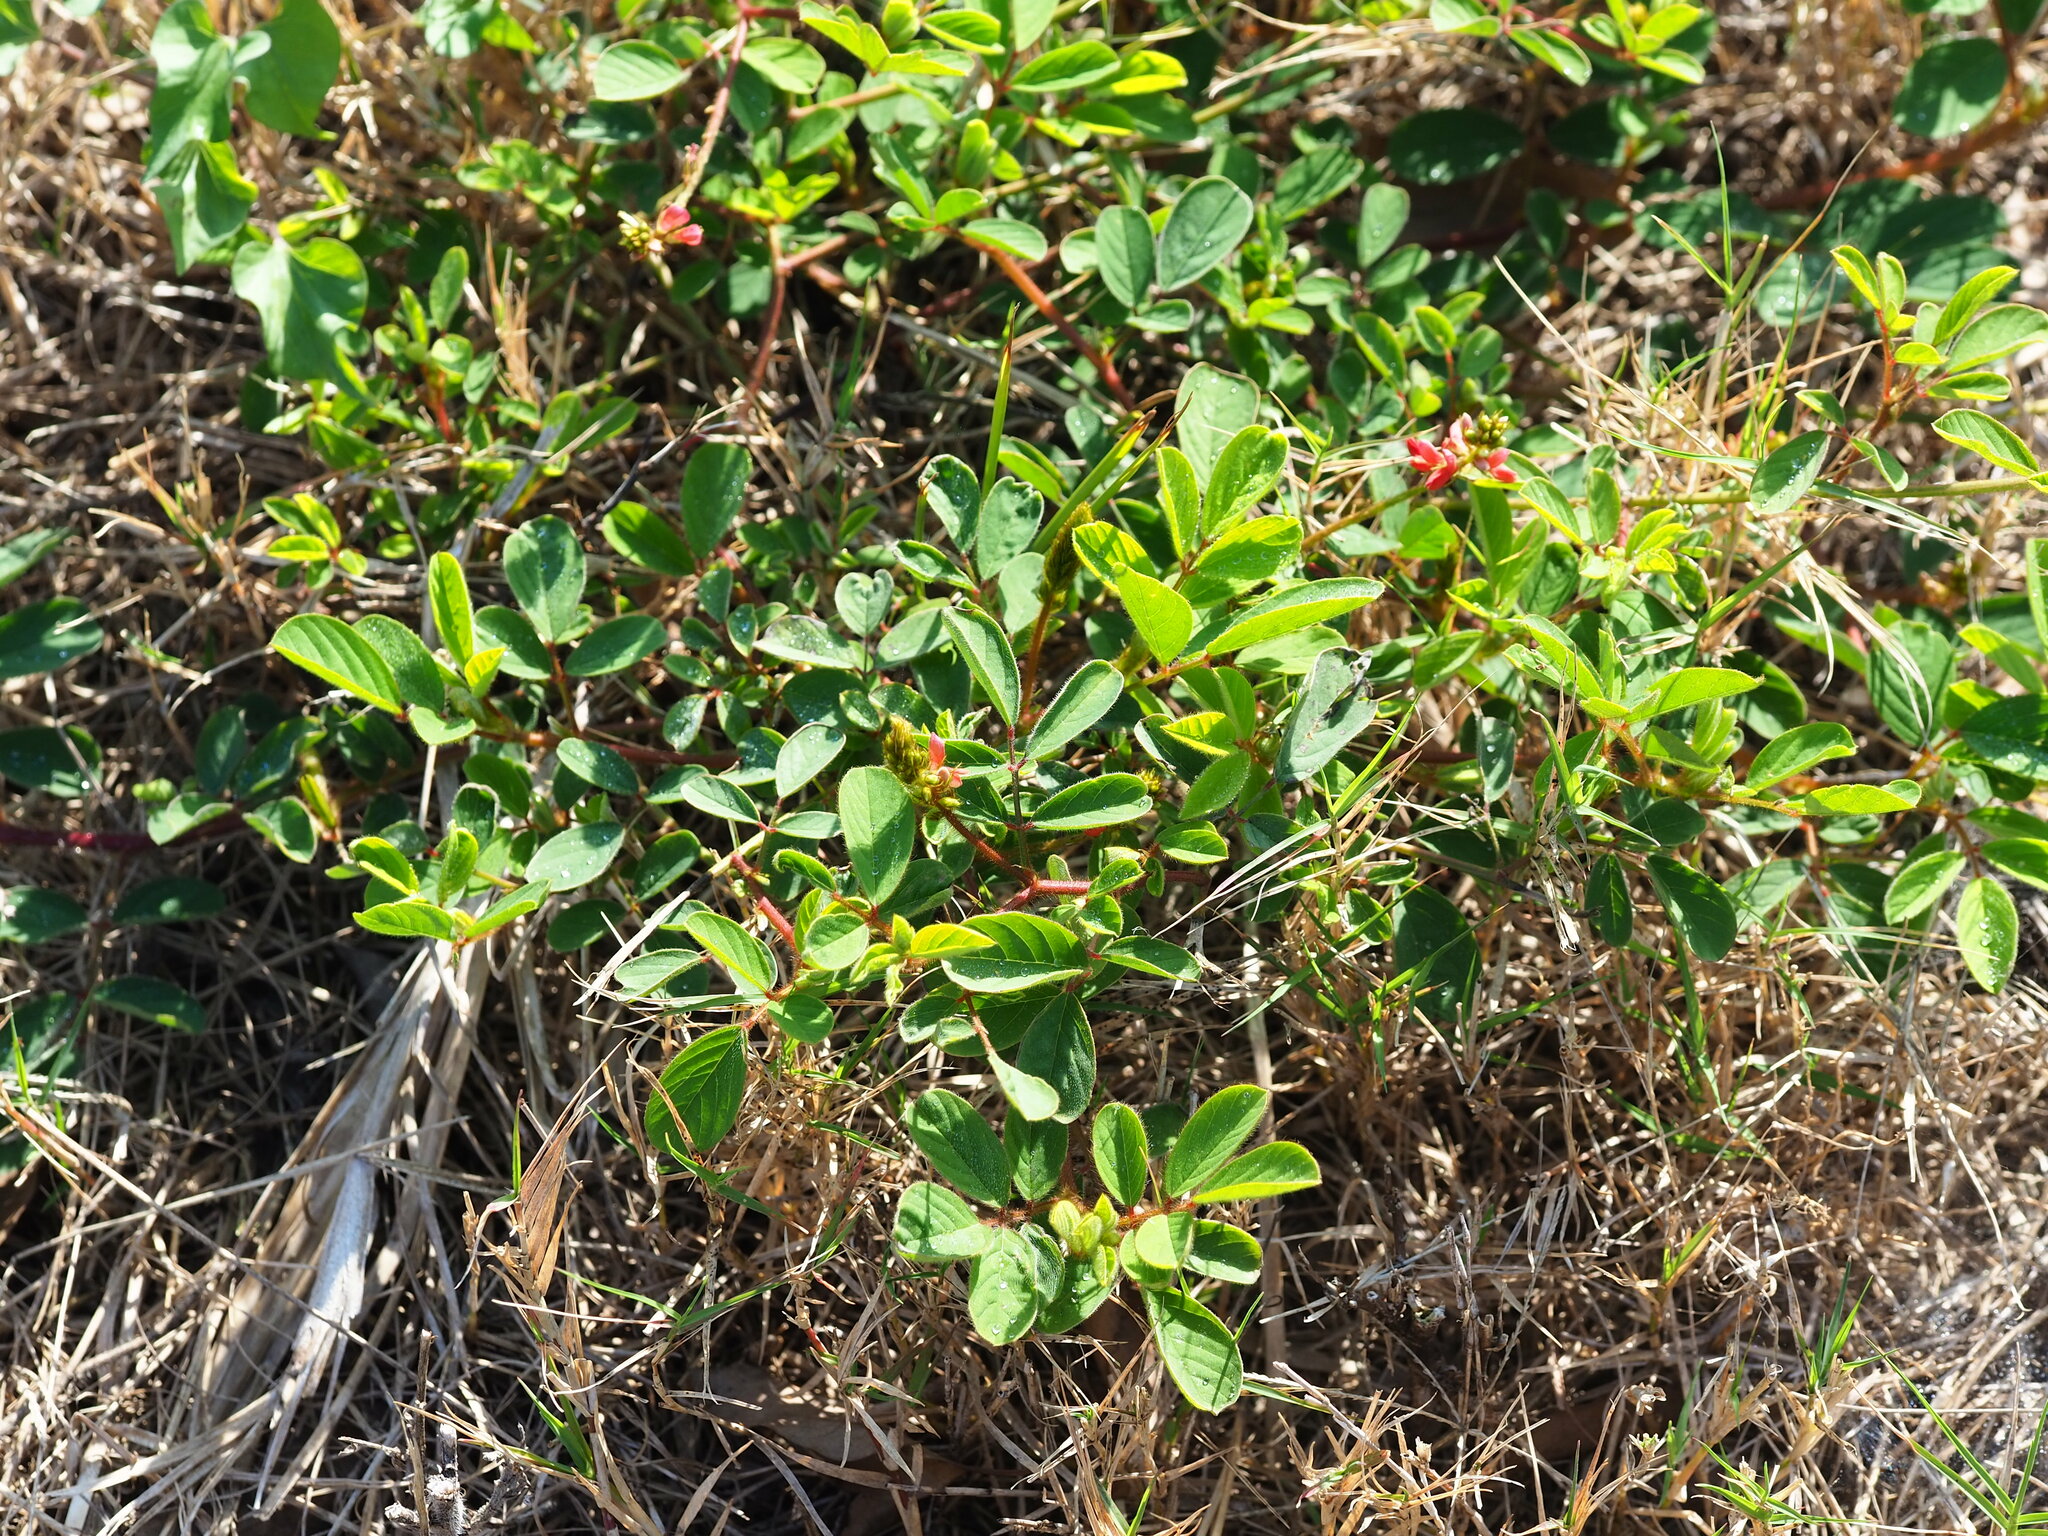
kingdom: Plantae
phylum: Tracheophyta
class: Magnoliopsida
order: Fabales
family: Fabaceae
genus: Indigofera
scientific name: Indigofera hirsuta
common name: Hairy indigo
